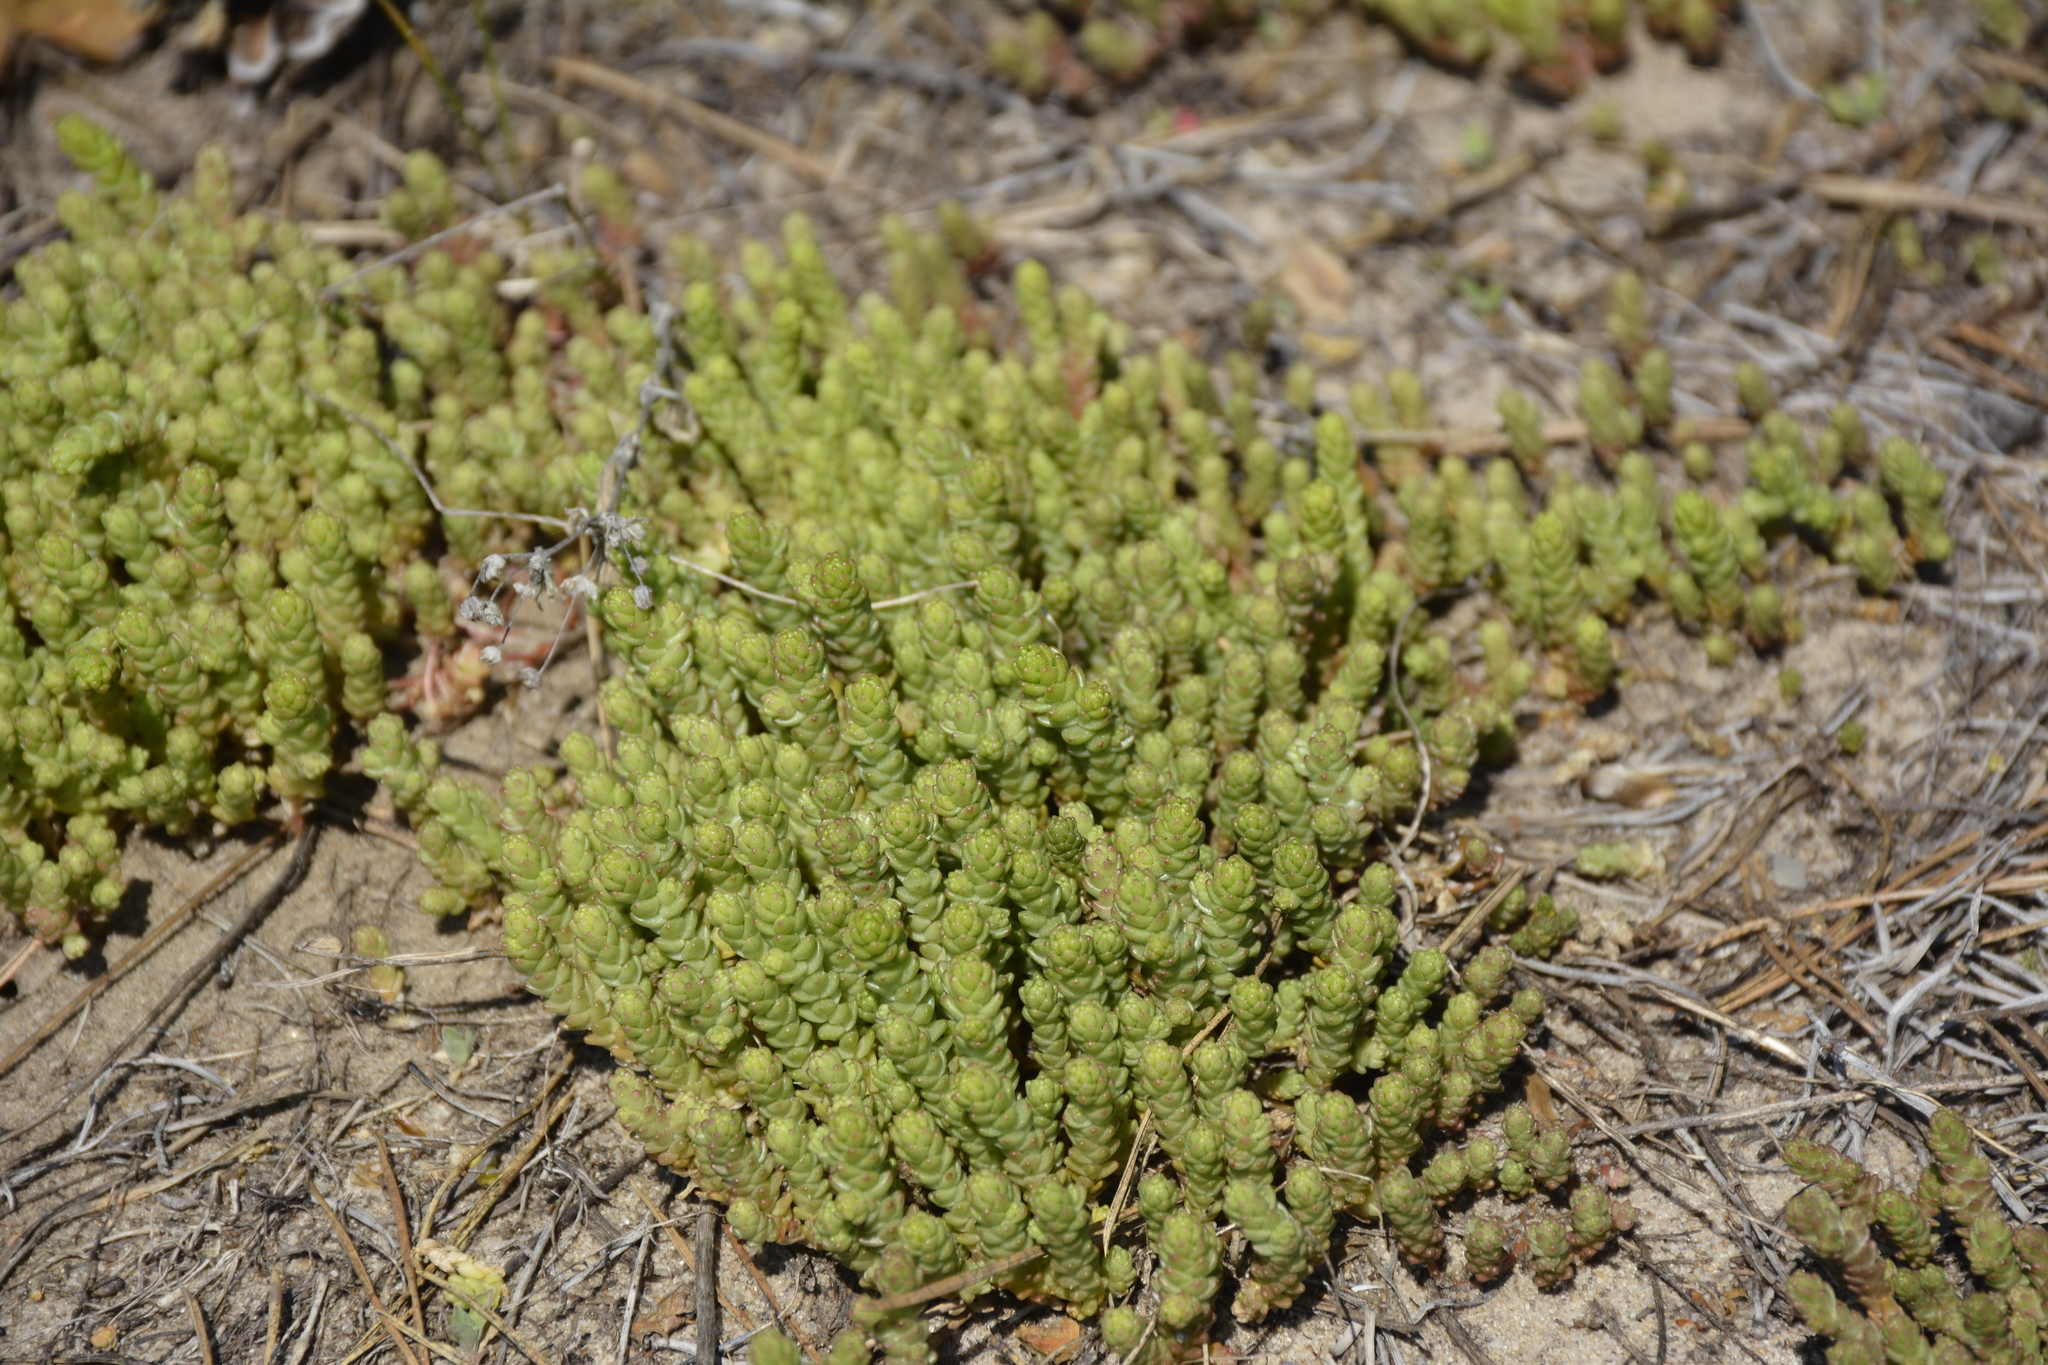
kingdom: Plantae
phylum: Tracheophyta
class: Magnoliopsida
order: Saxifragales
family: Crassulaceae
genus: Sedum
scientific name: Sedum acre
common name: Biting stonecrop
